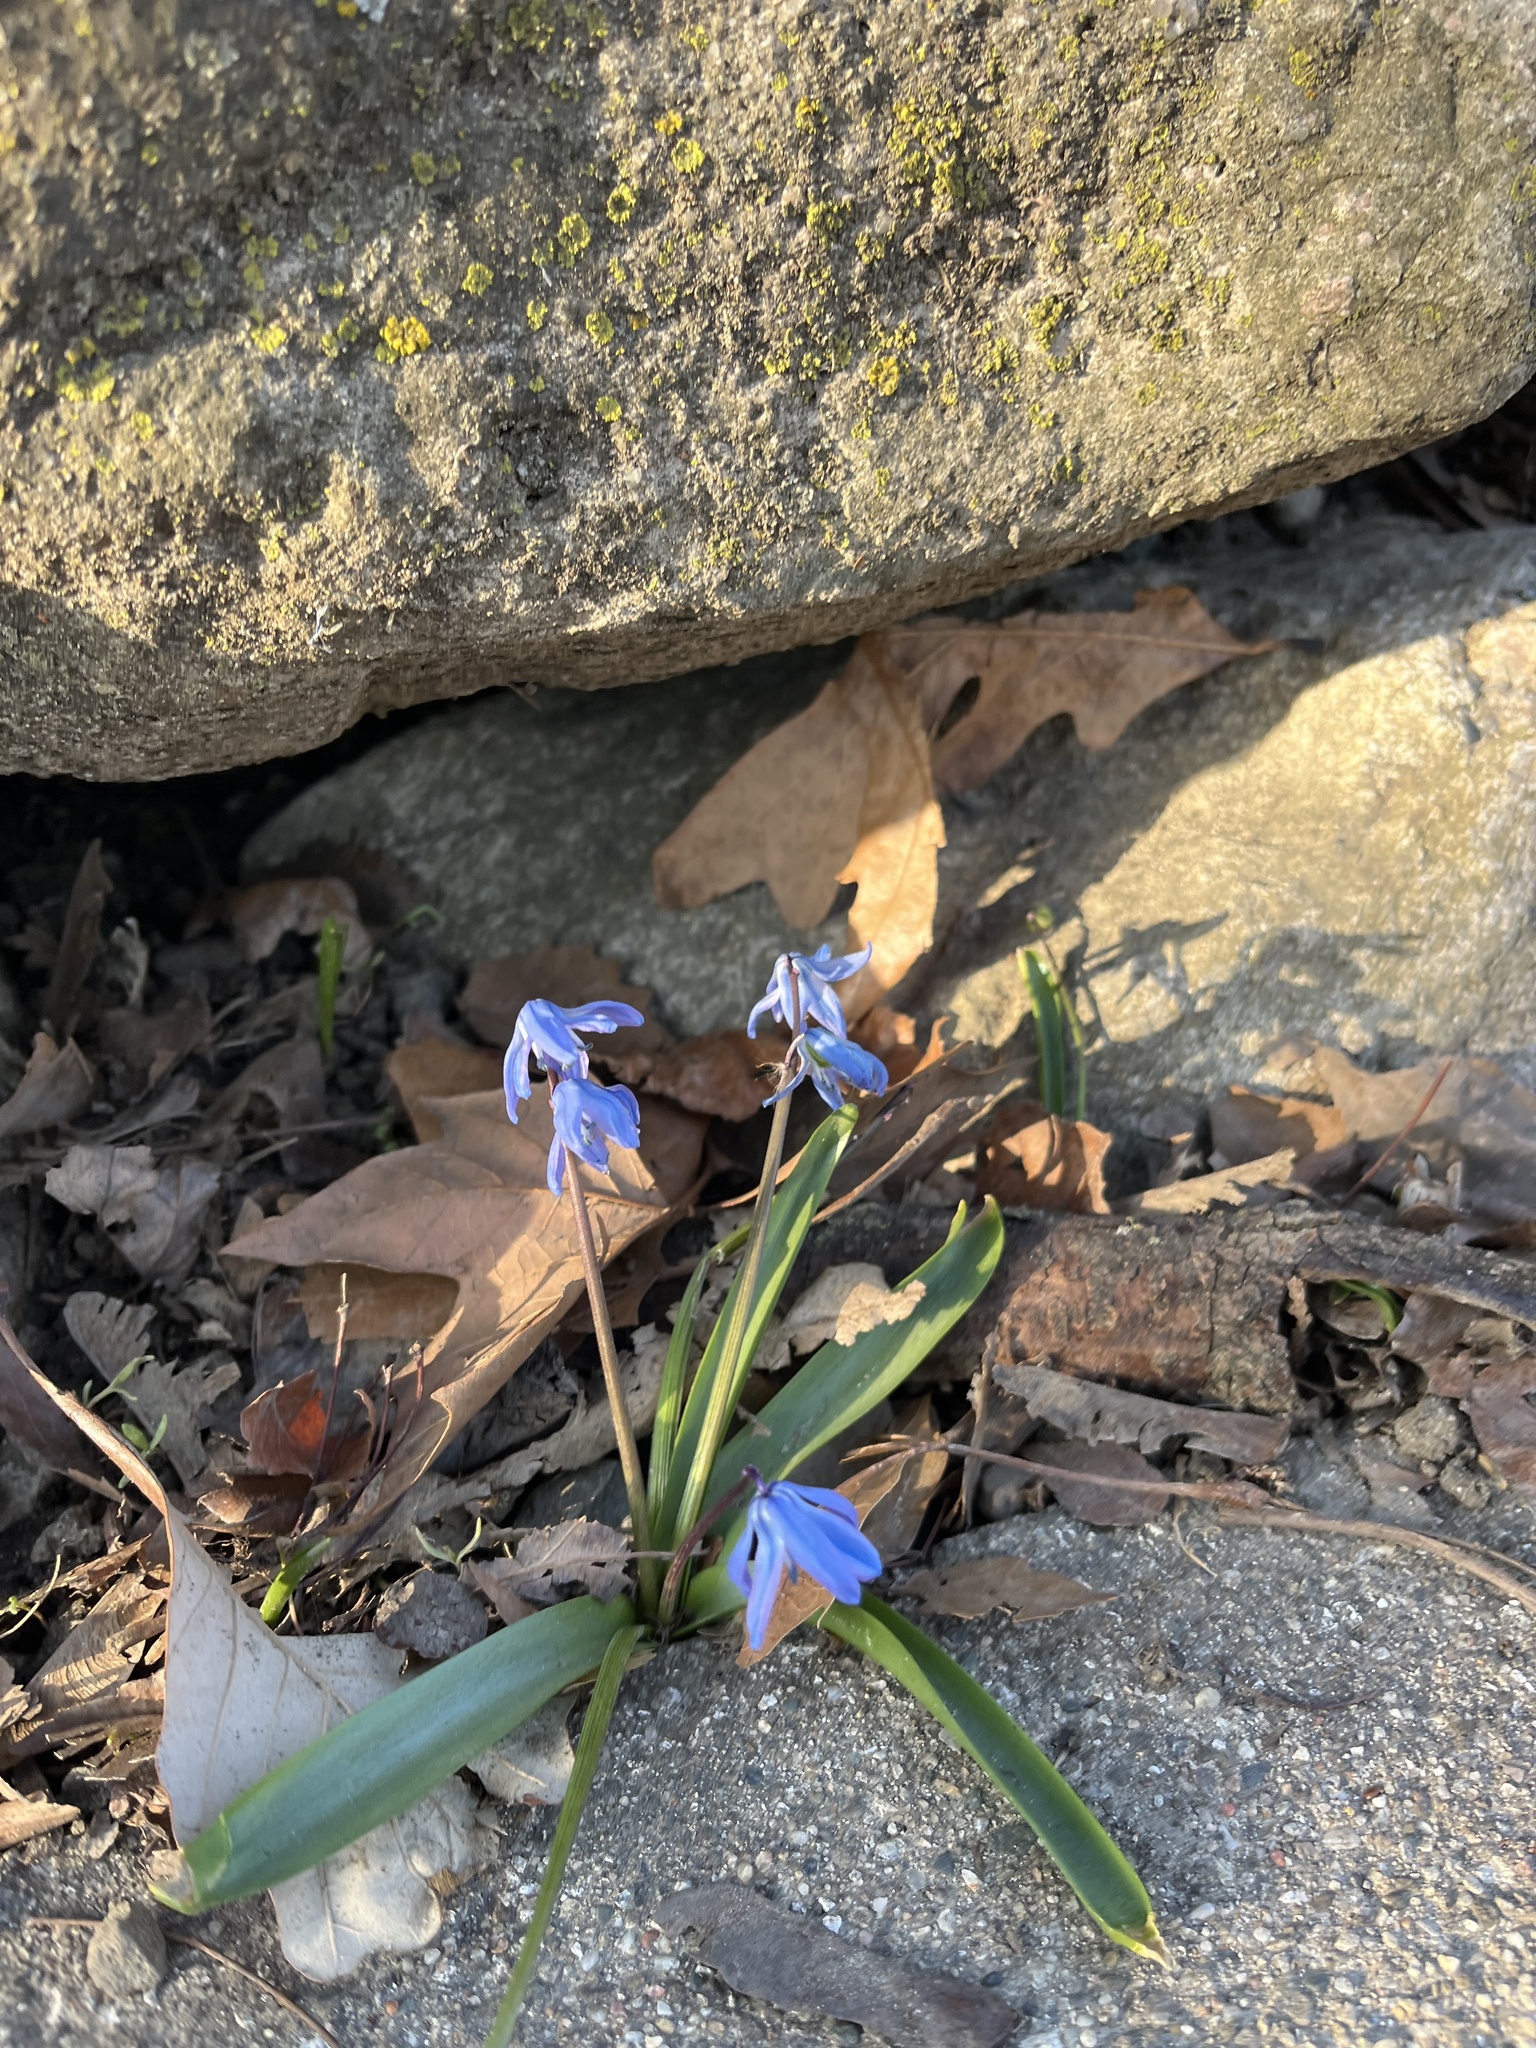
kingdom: Plantae
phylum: Tracheophyta
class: Liliopsida
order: Asparagales
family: Asparagaceae
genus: Scilla
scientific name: Scilla siberica
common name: Siberian squill
